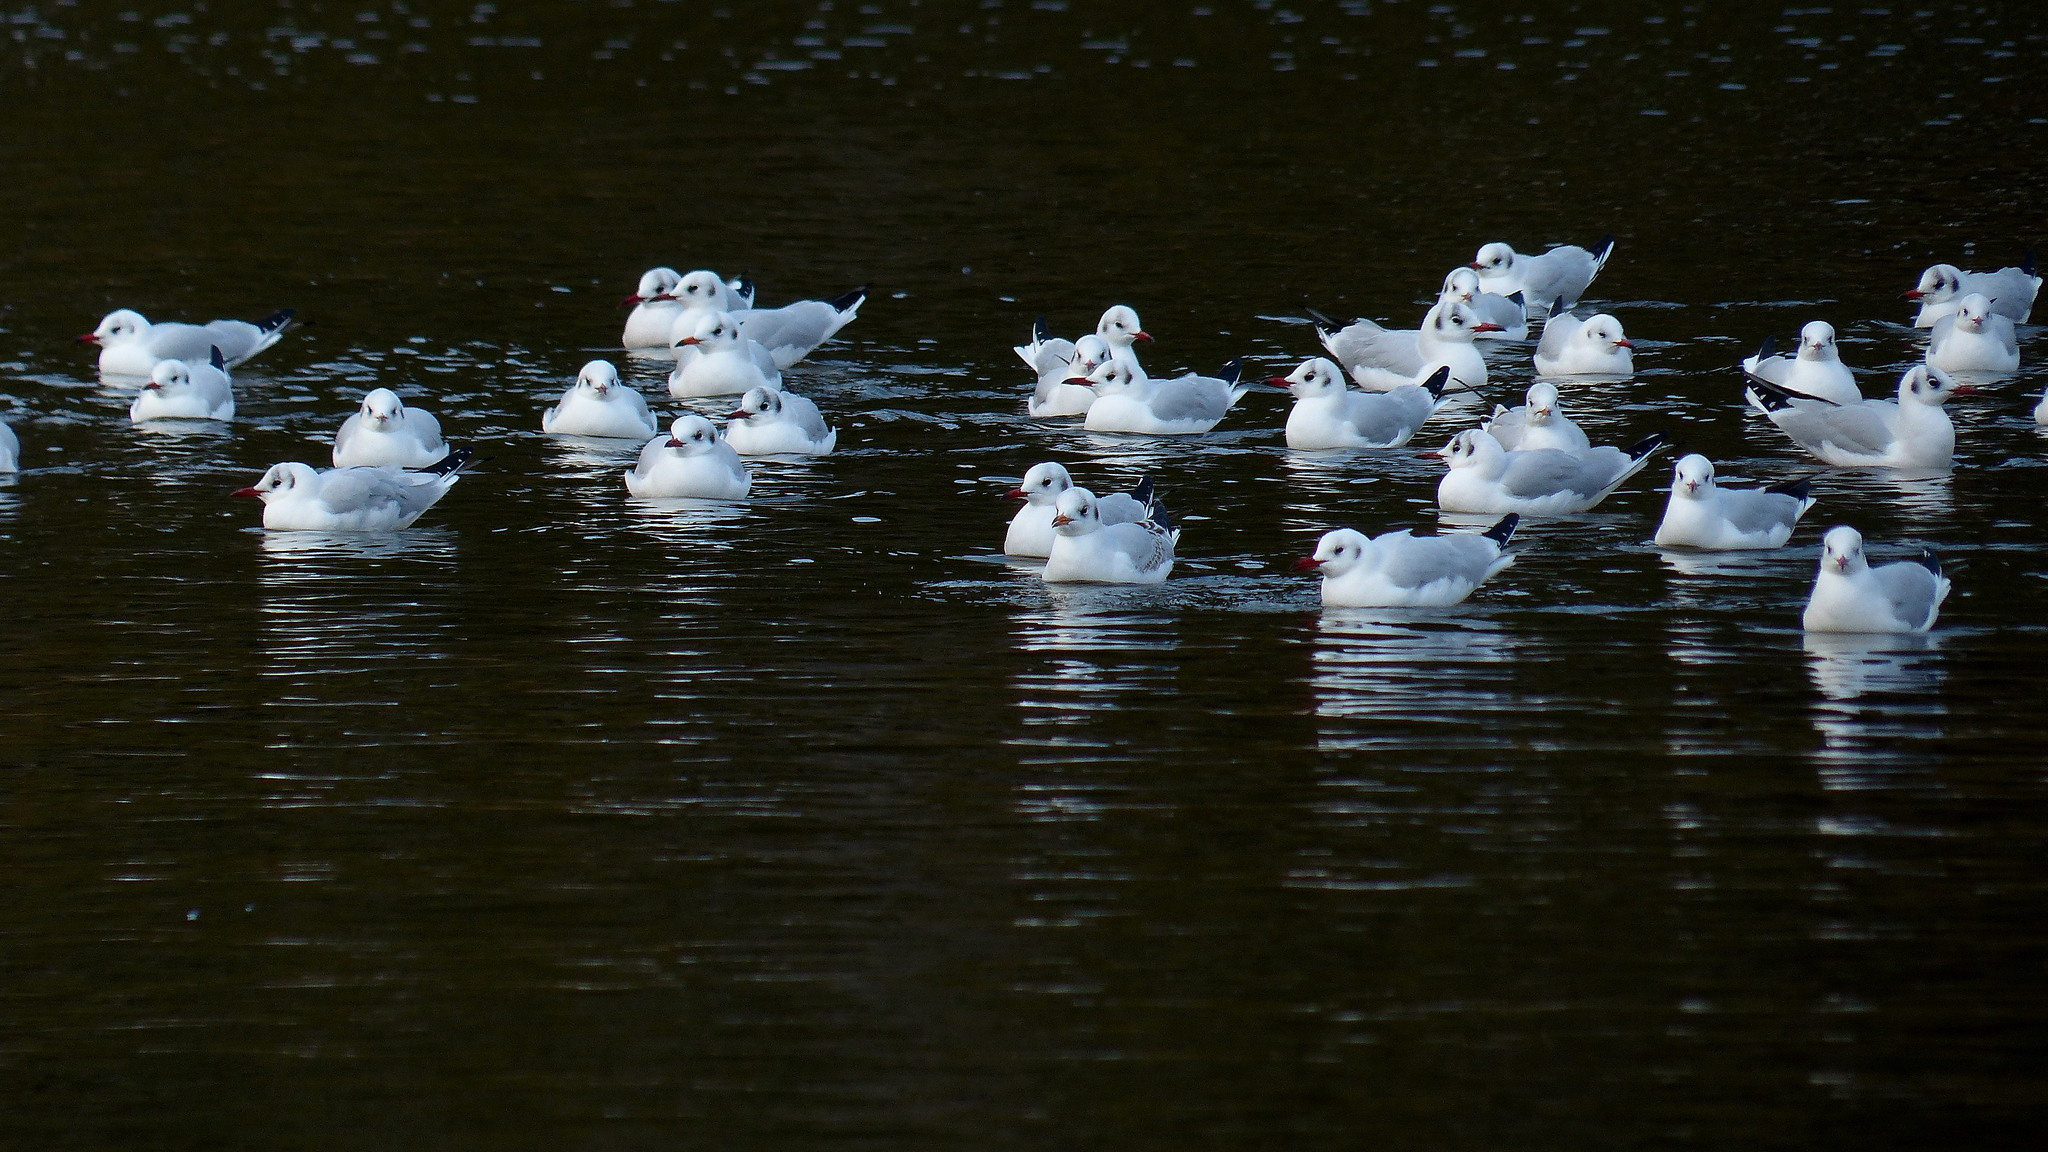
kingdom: Animalia
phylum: Chordata
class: Aves
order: Charadriiformes
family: Laridae
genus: Chroicocephalus
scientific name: Chroicocephalus ridibundus
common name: Black-headed gull
